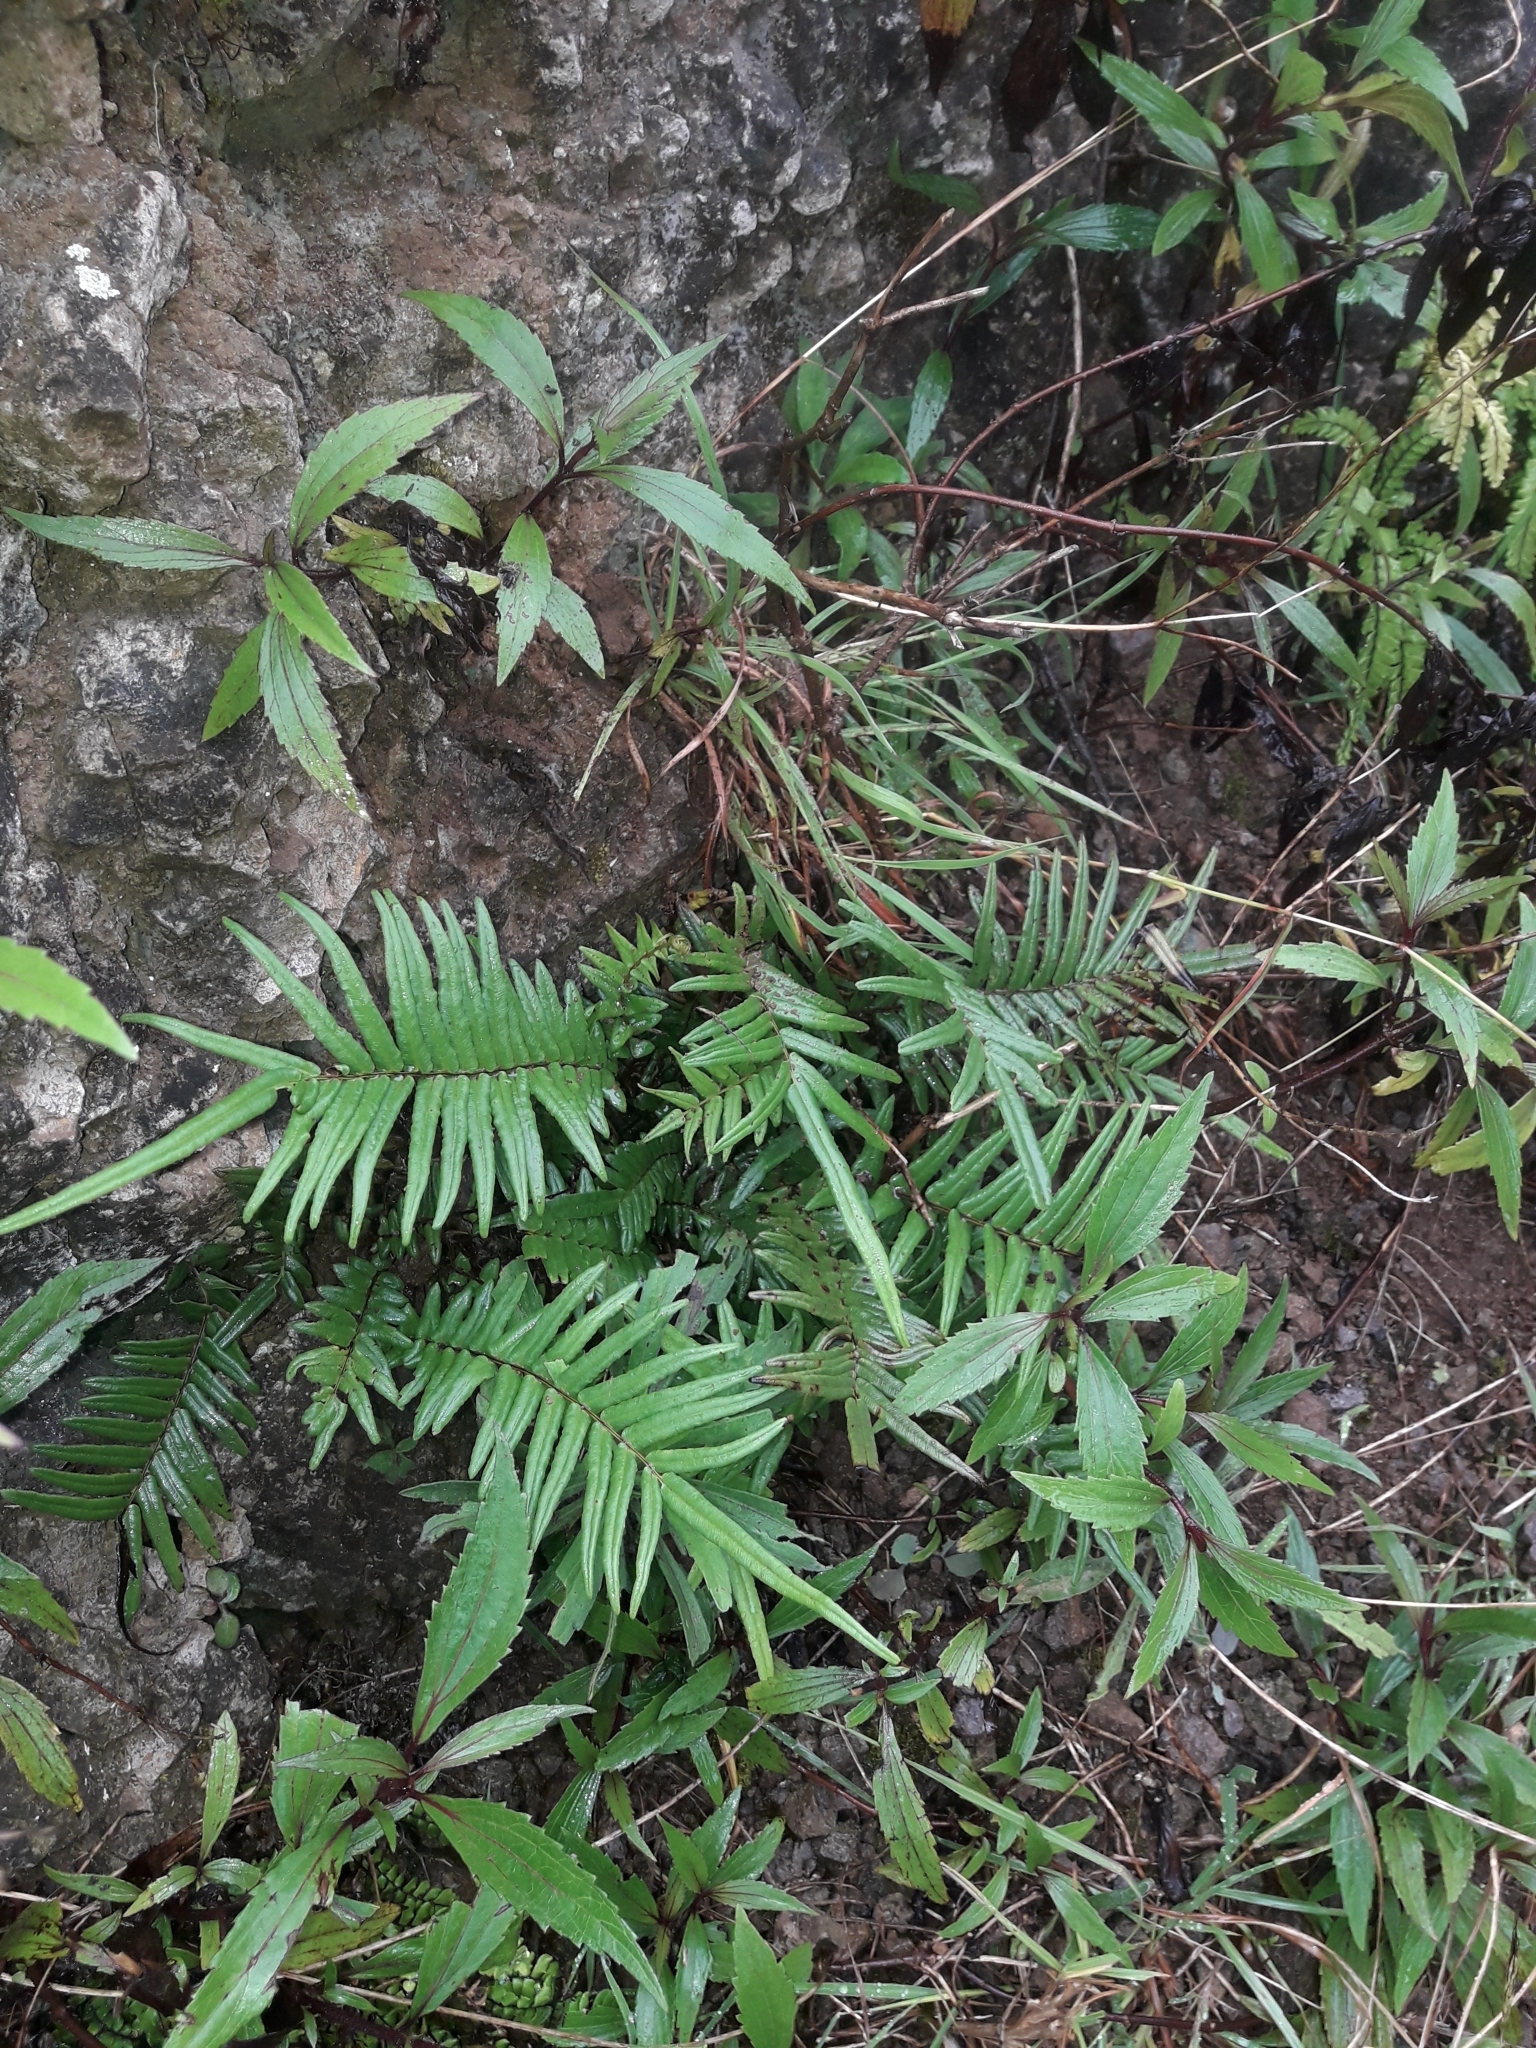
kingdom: Plantae
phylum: Tracheophyta
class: Polypodiopsida
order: Polypodiales
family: Pteridaceae
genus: Pteris
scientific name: Pteris vittata
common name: Ladder brake
